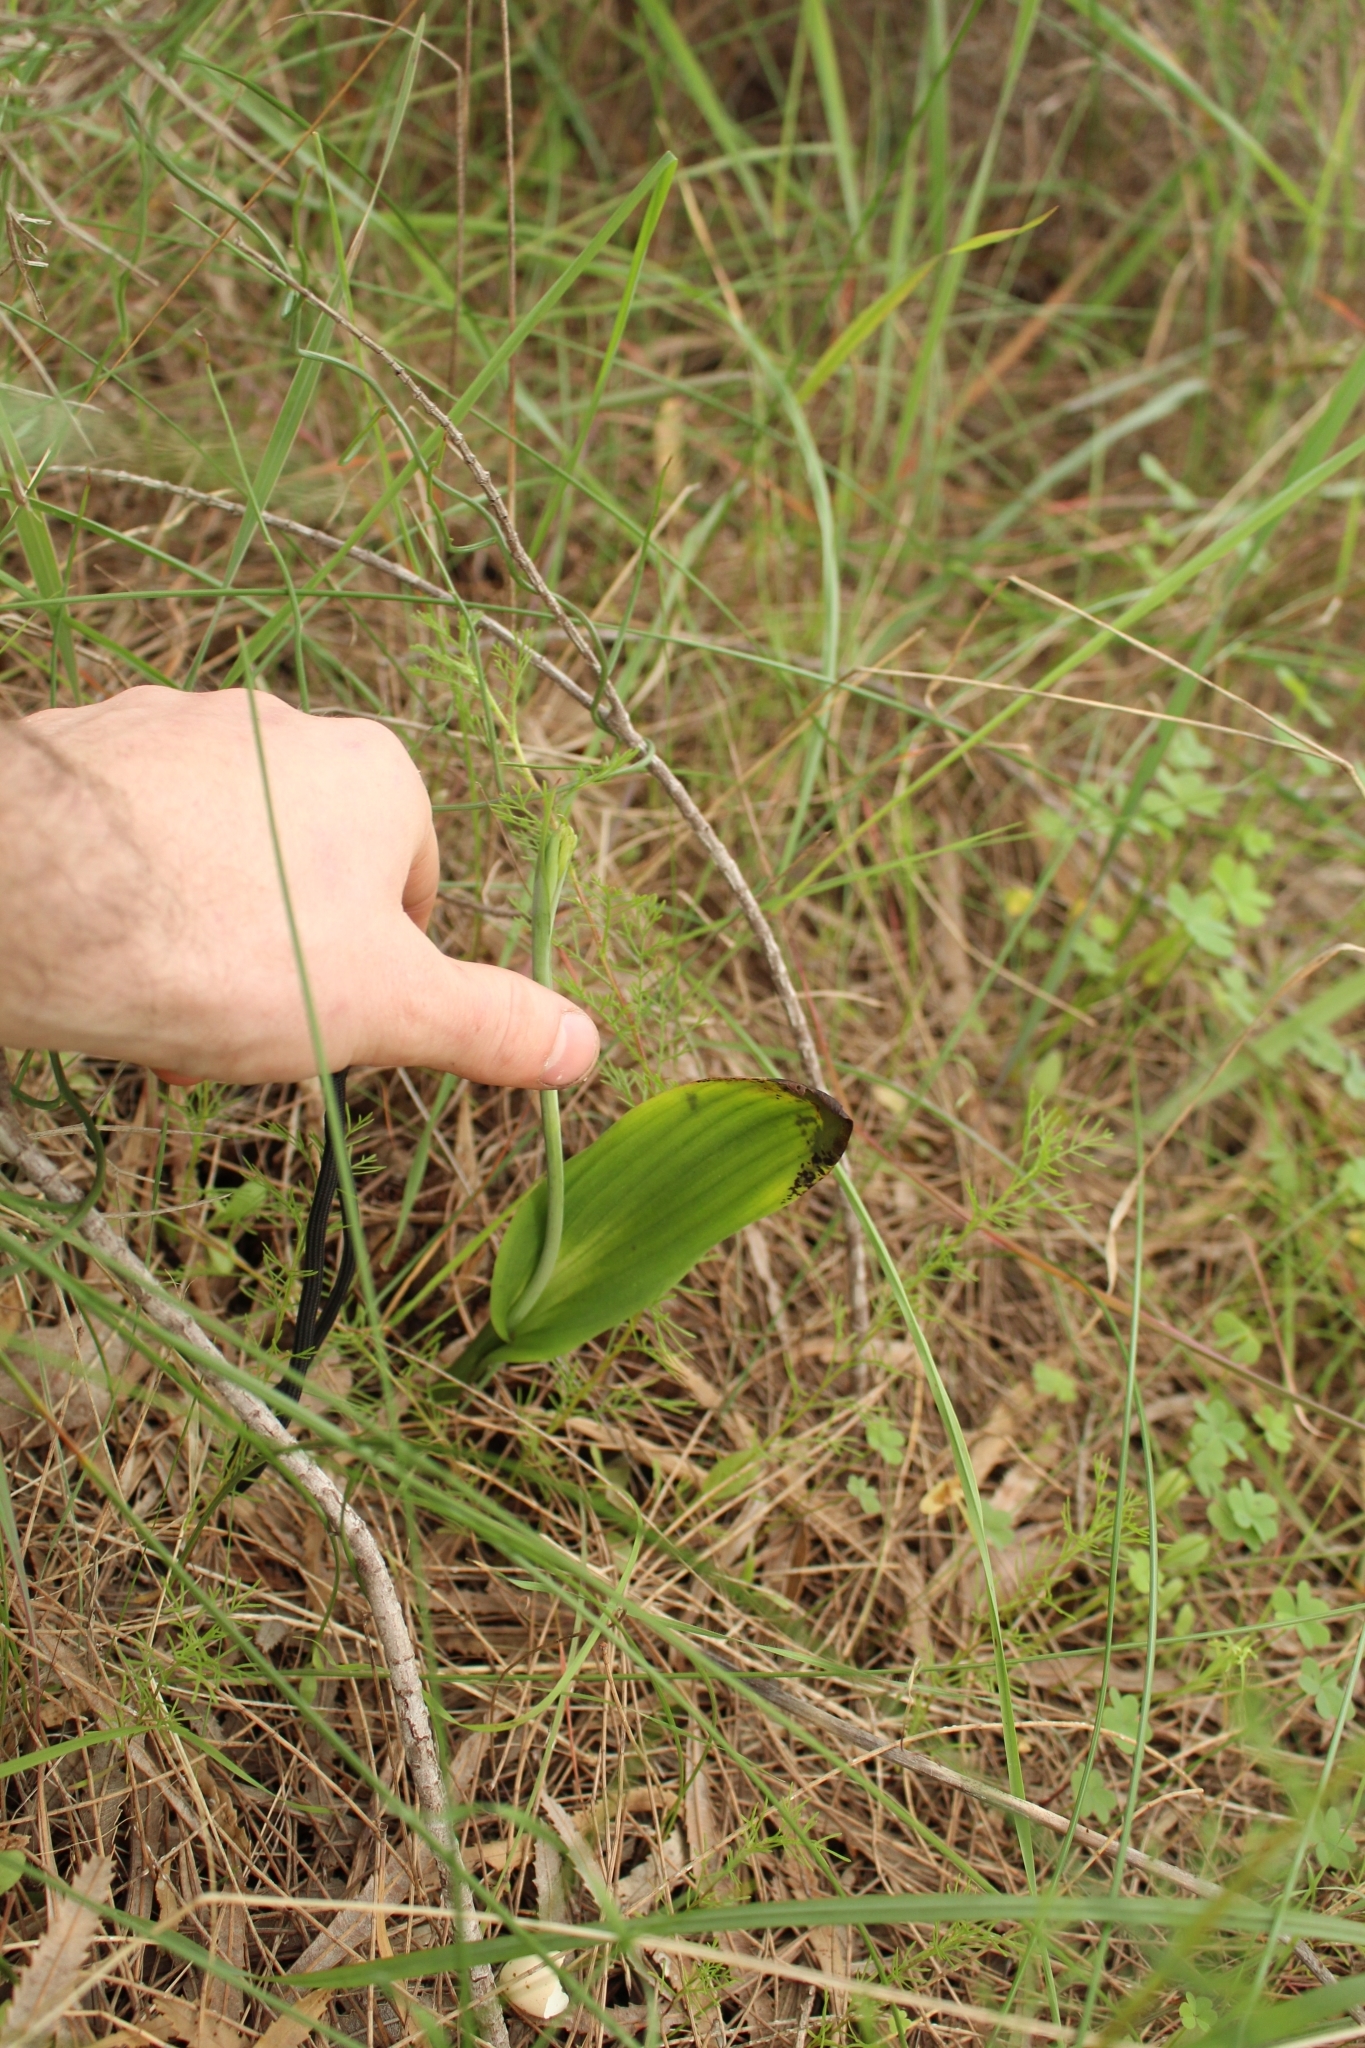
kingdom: Plantae
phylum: Tracheophyta
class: Liliopsida
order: Asparagales
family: Orchidaceae
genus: Thelymitra
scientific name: Thelymitra crinita
